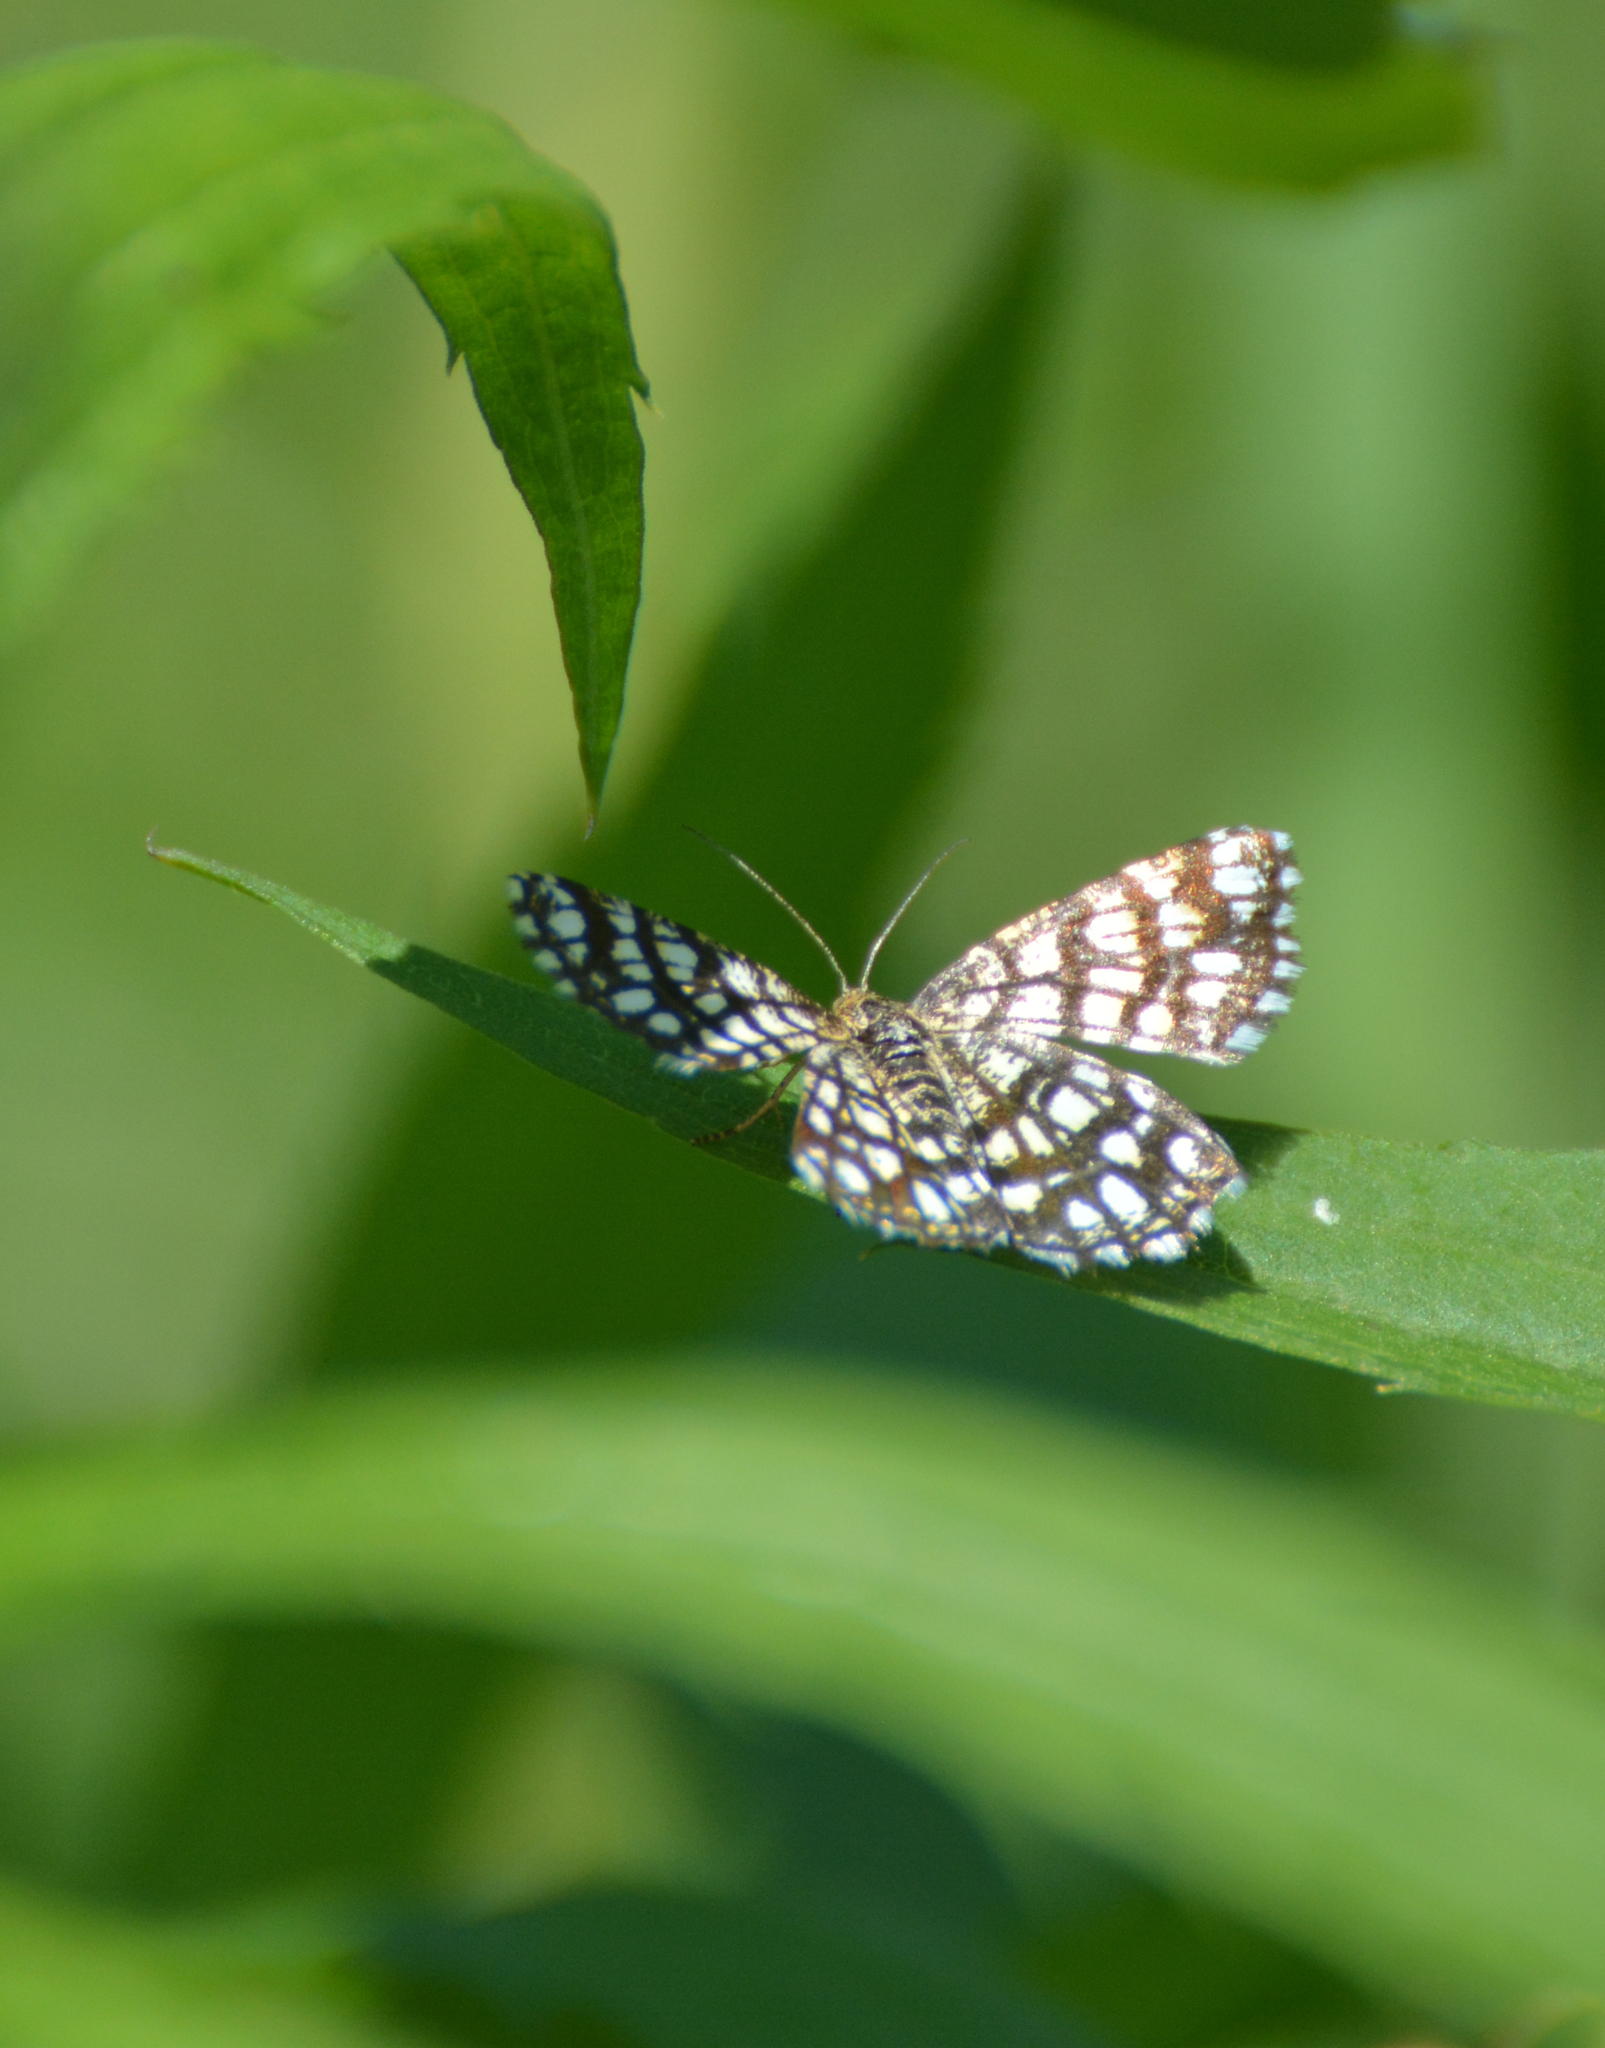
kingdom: Animalia
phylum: Arthropoda
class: Insecta
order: Lepidoptera
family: Geometridae
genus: Chiasmia
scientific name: Chiasmia clathrata
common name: Latticed heath
